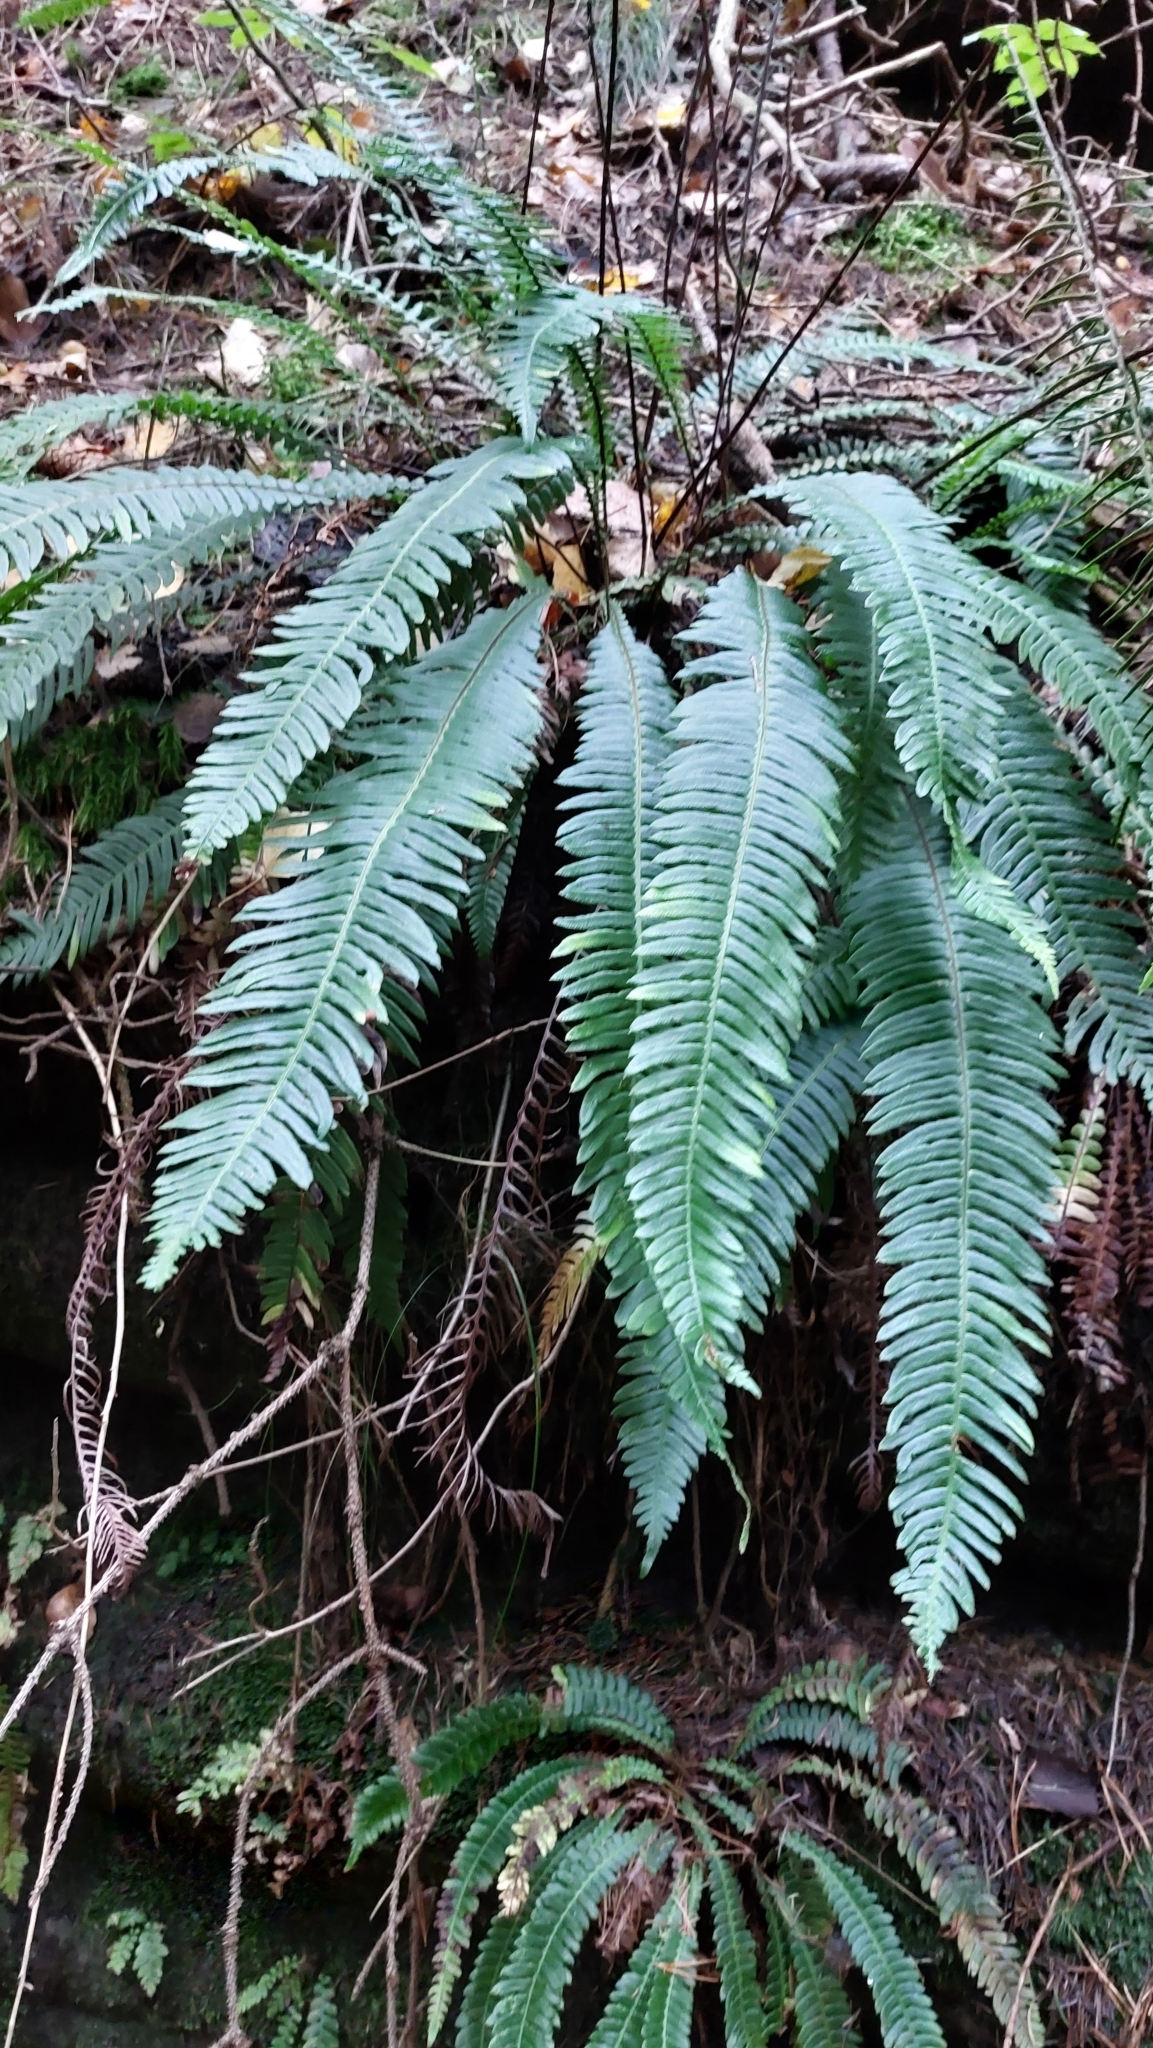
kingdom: Plantae
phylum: Tracheophyta
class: Polypodiopsida
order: Polypodiales
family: Blechnaceae
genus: Struthiopteris
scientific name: Struthiopteris spicant
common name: Deer fern
